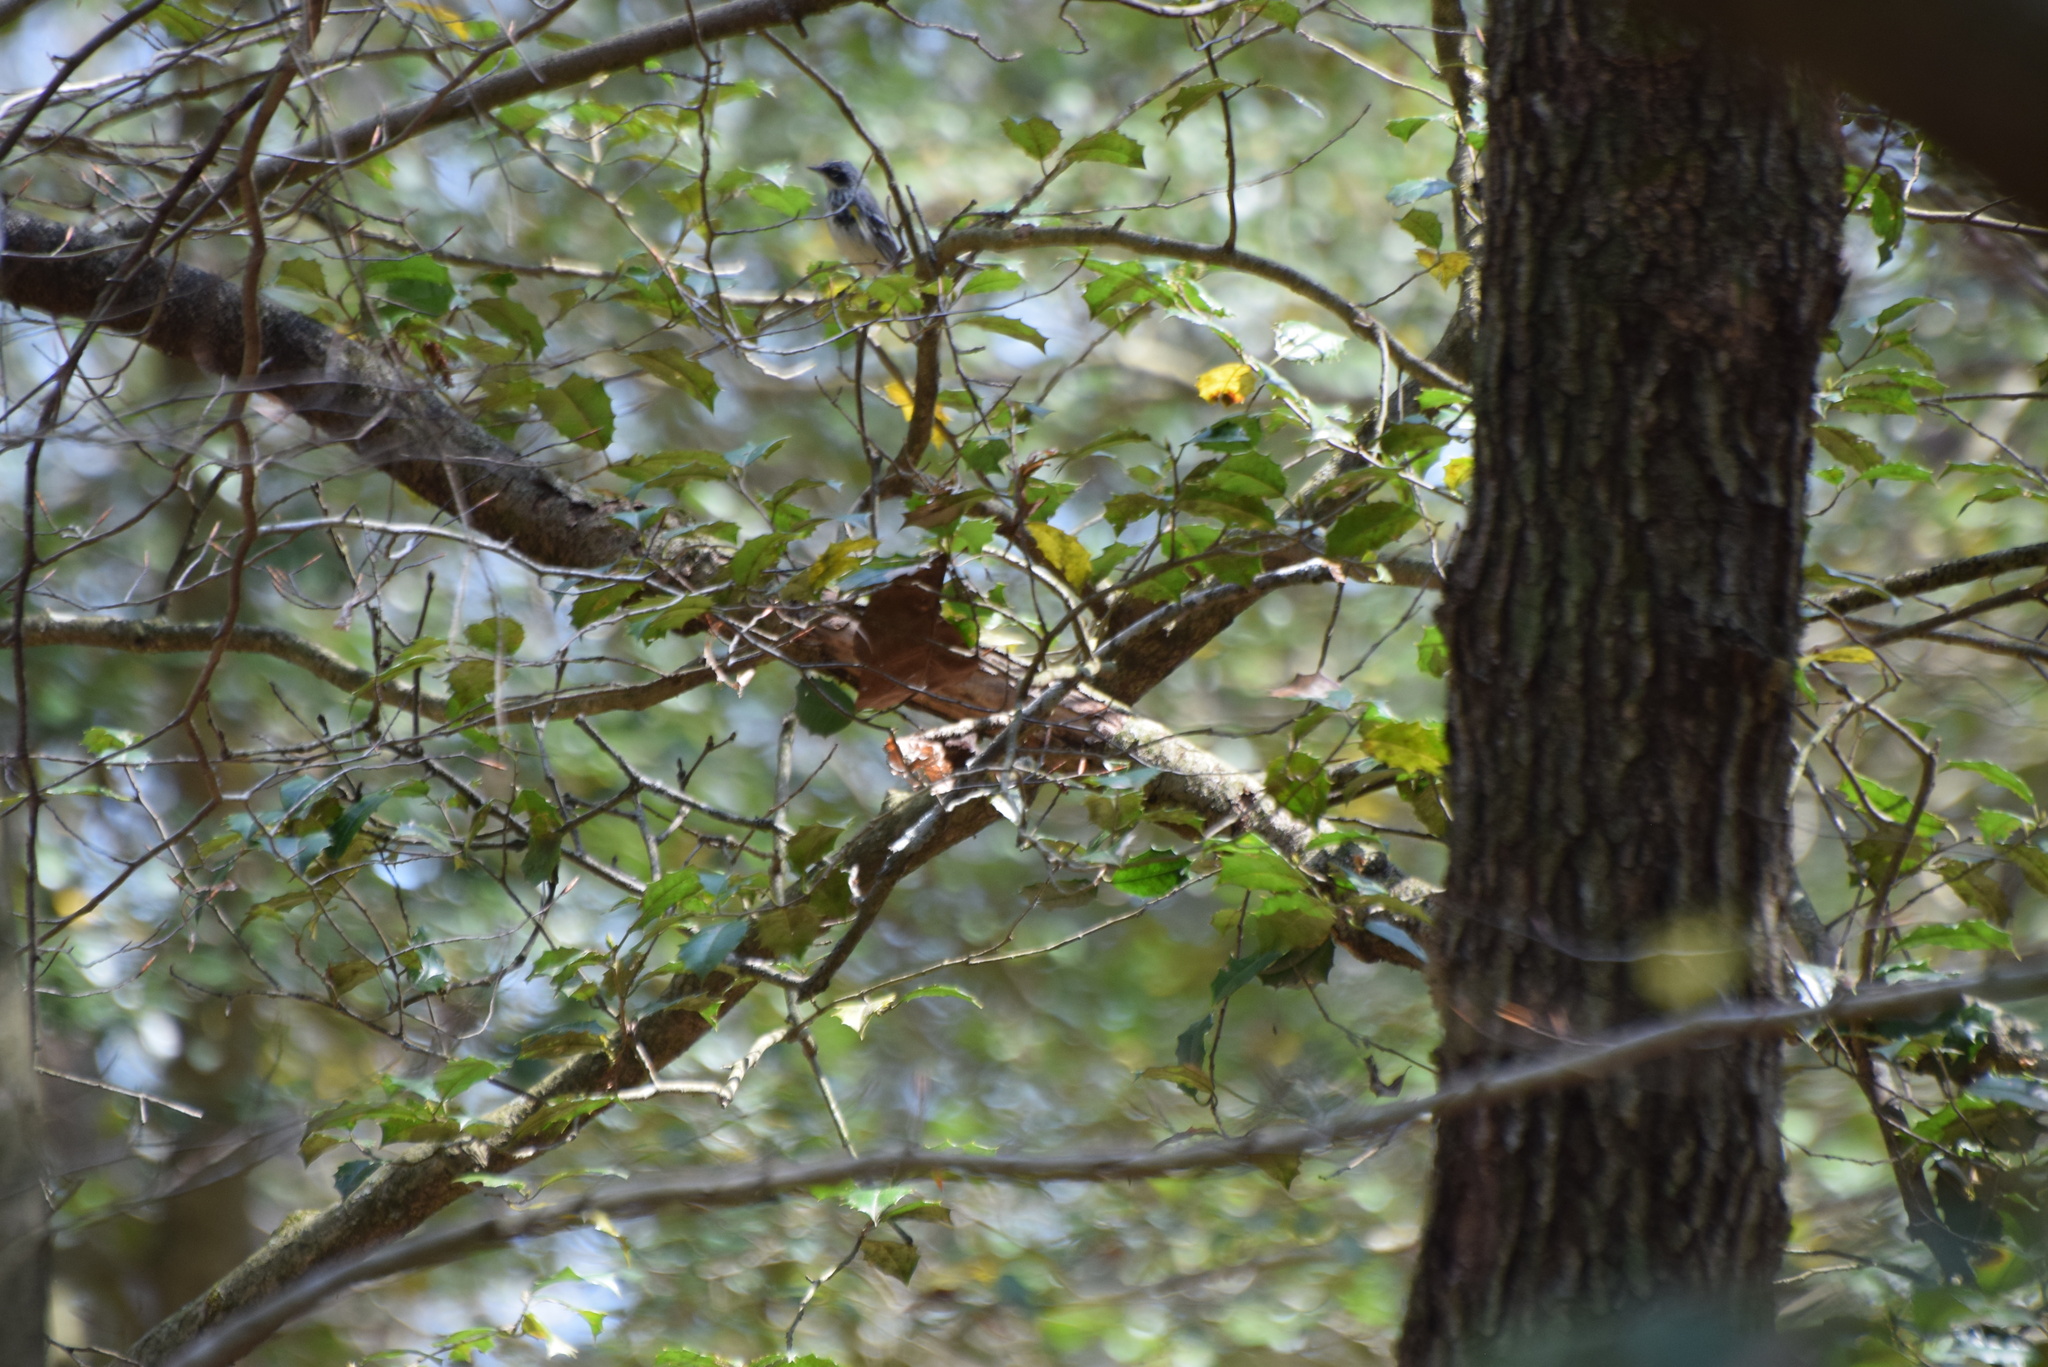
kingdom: Animalia
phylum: Chordata
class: Aves
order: Passeriformes
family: Parulidae
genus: Setophaga
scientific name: Setophaga coronata
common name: Myrtle warbler
